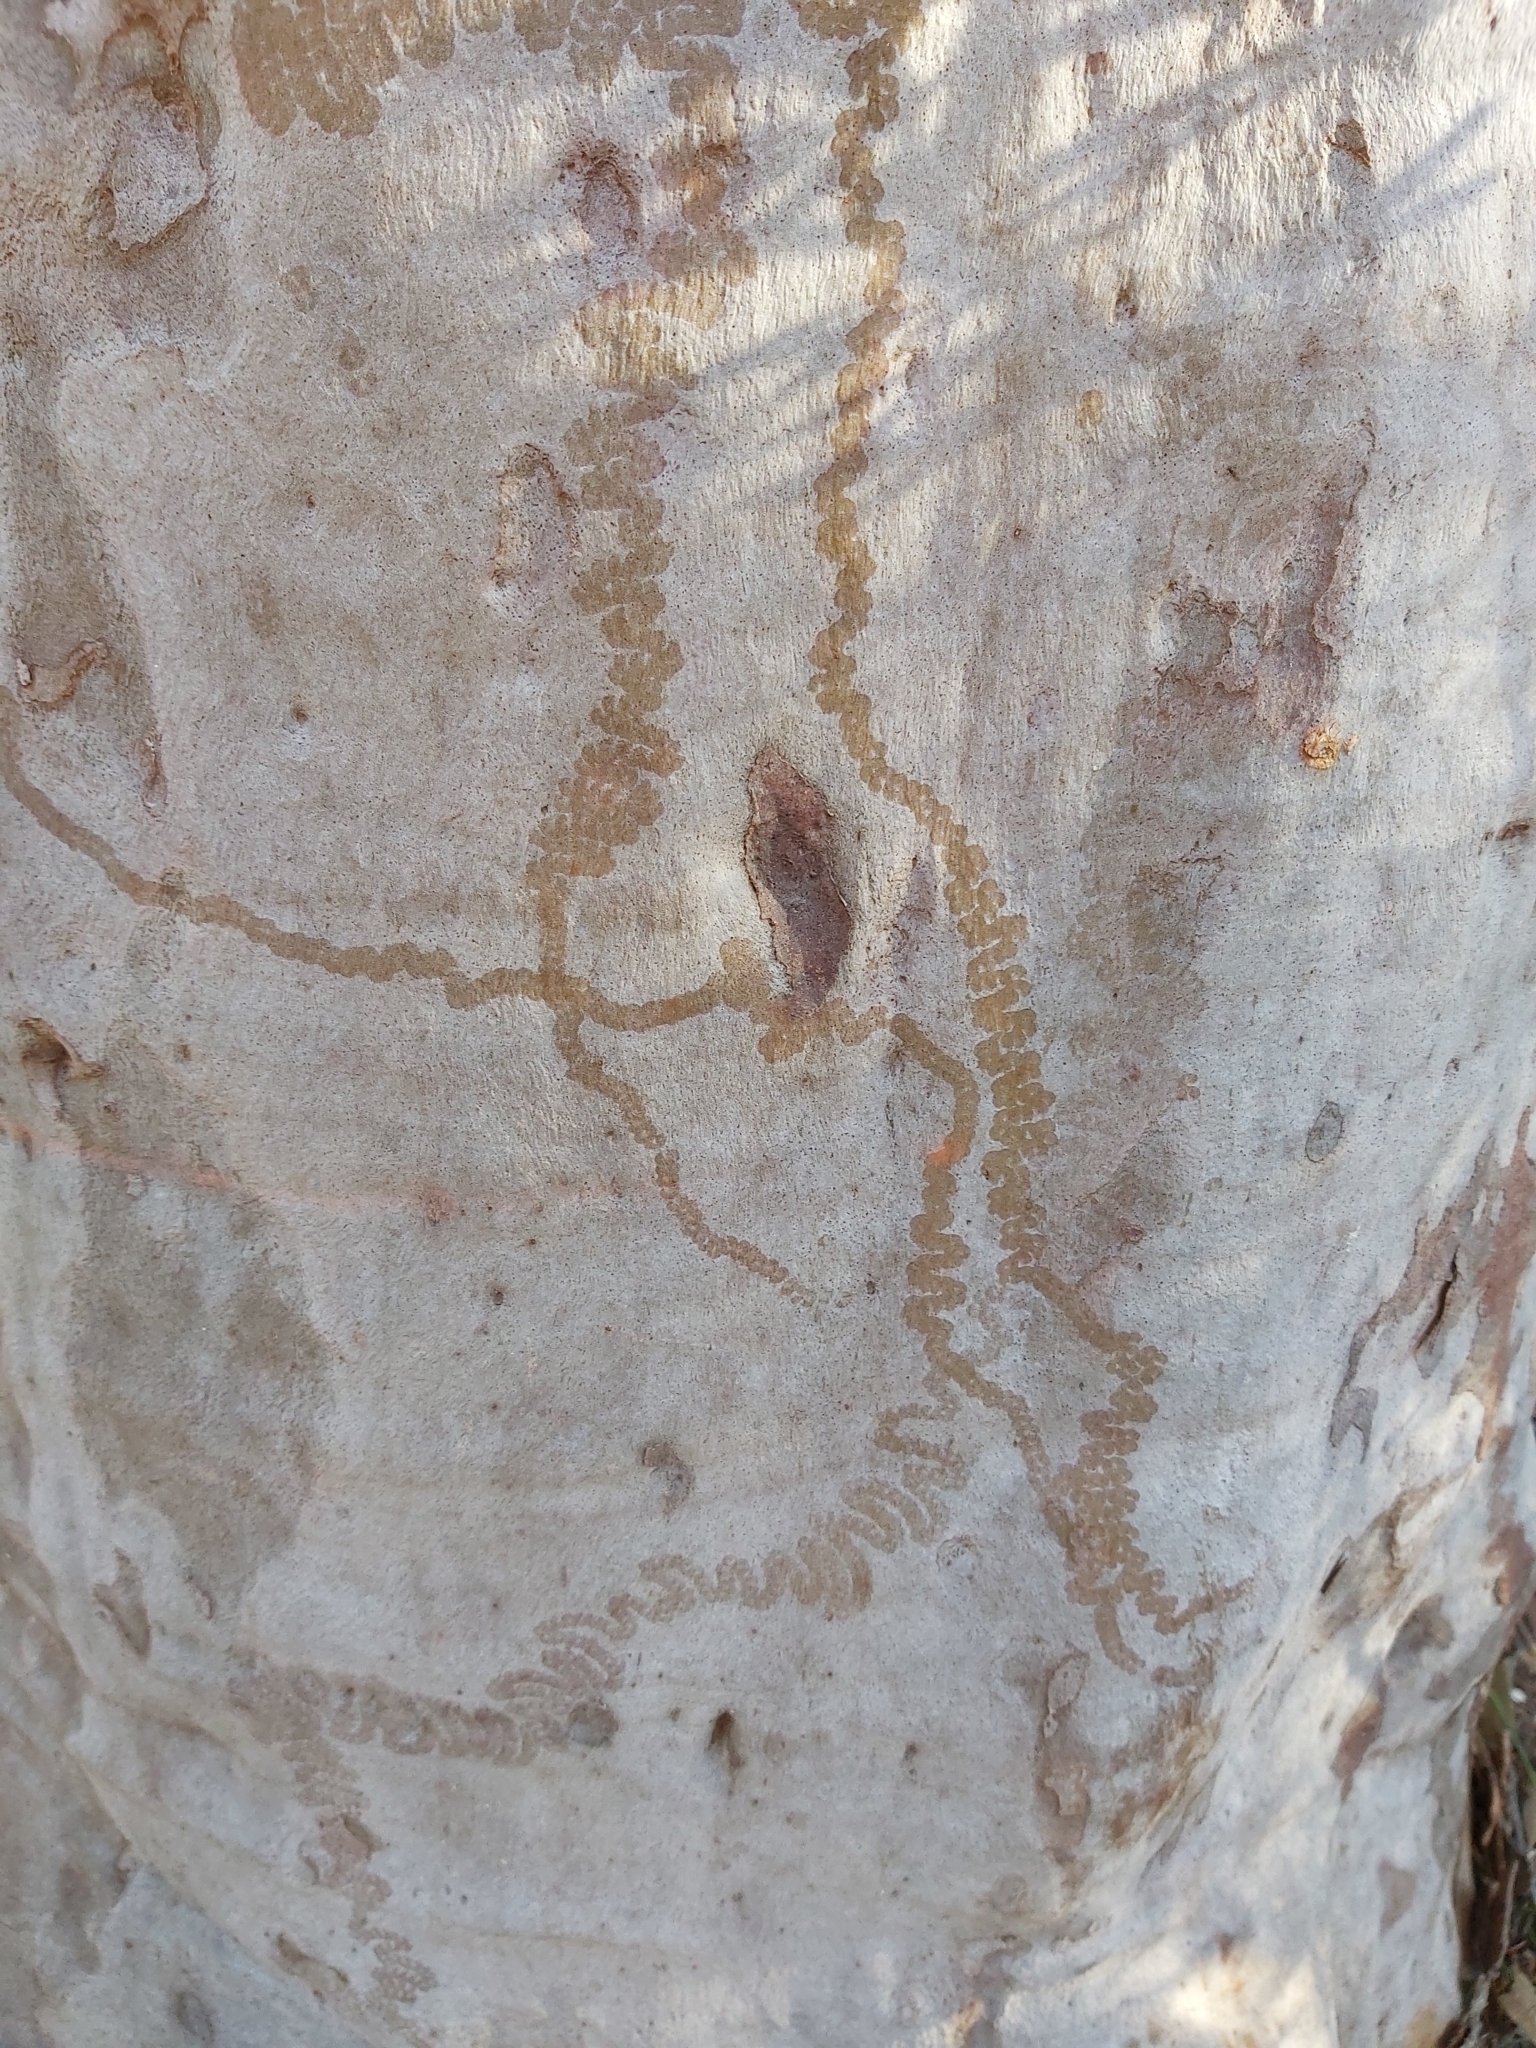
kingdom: Animalia
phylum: Mollusca
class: Gastropoda
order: Stylommatophora
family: Athoracophoridae
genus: Triboniophorus
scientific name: Triboniophorus graeffei
